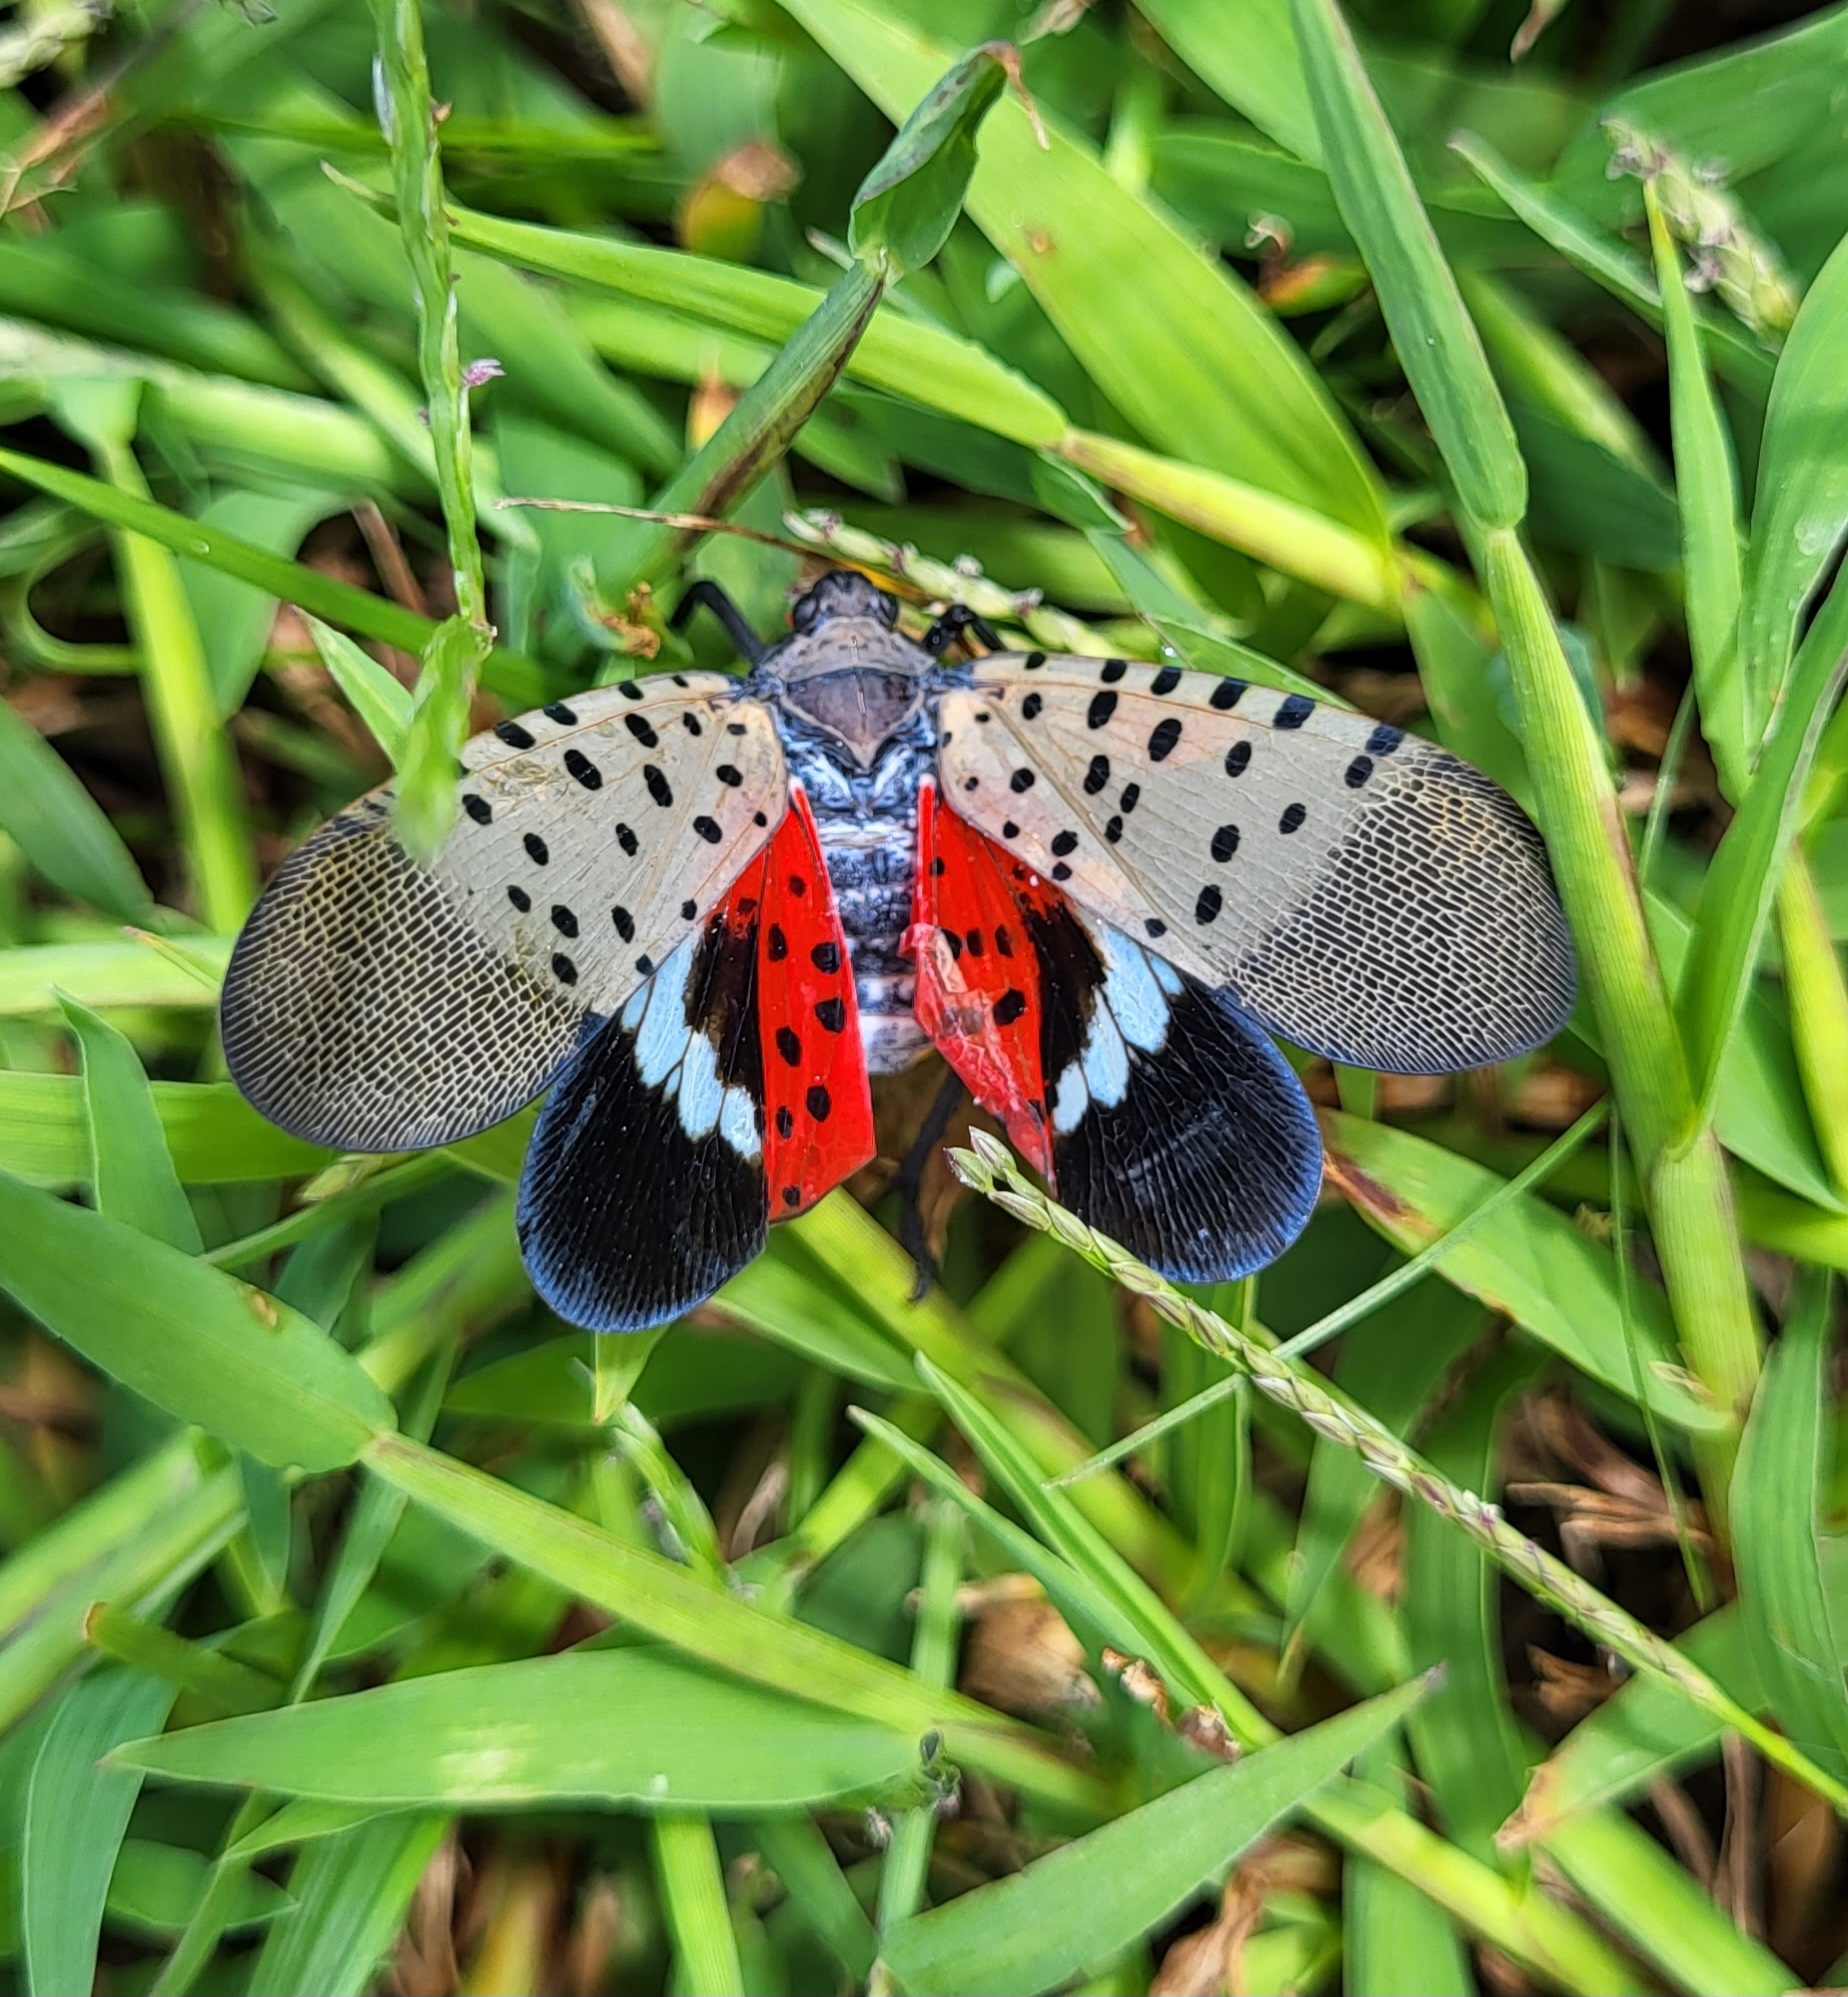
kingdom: Animalia
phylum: Arthropoda
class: Insecta
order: Hemiptera
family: Fulgoridae
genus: Lycorma
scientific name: Lycorma delicatula
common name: Spotted lanternfly
